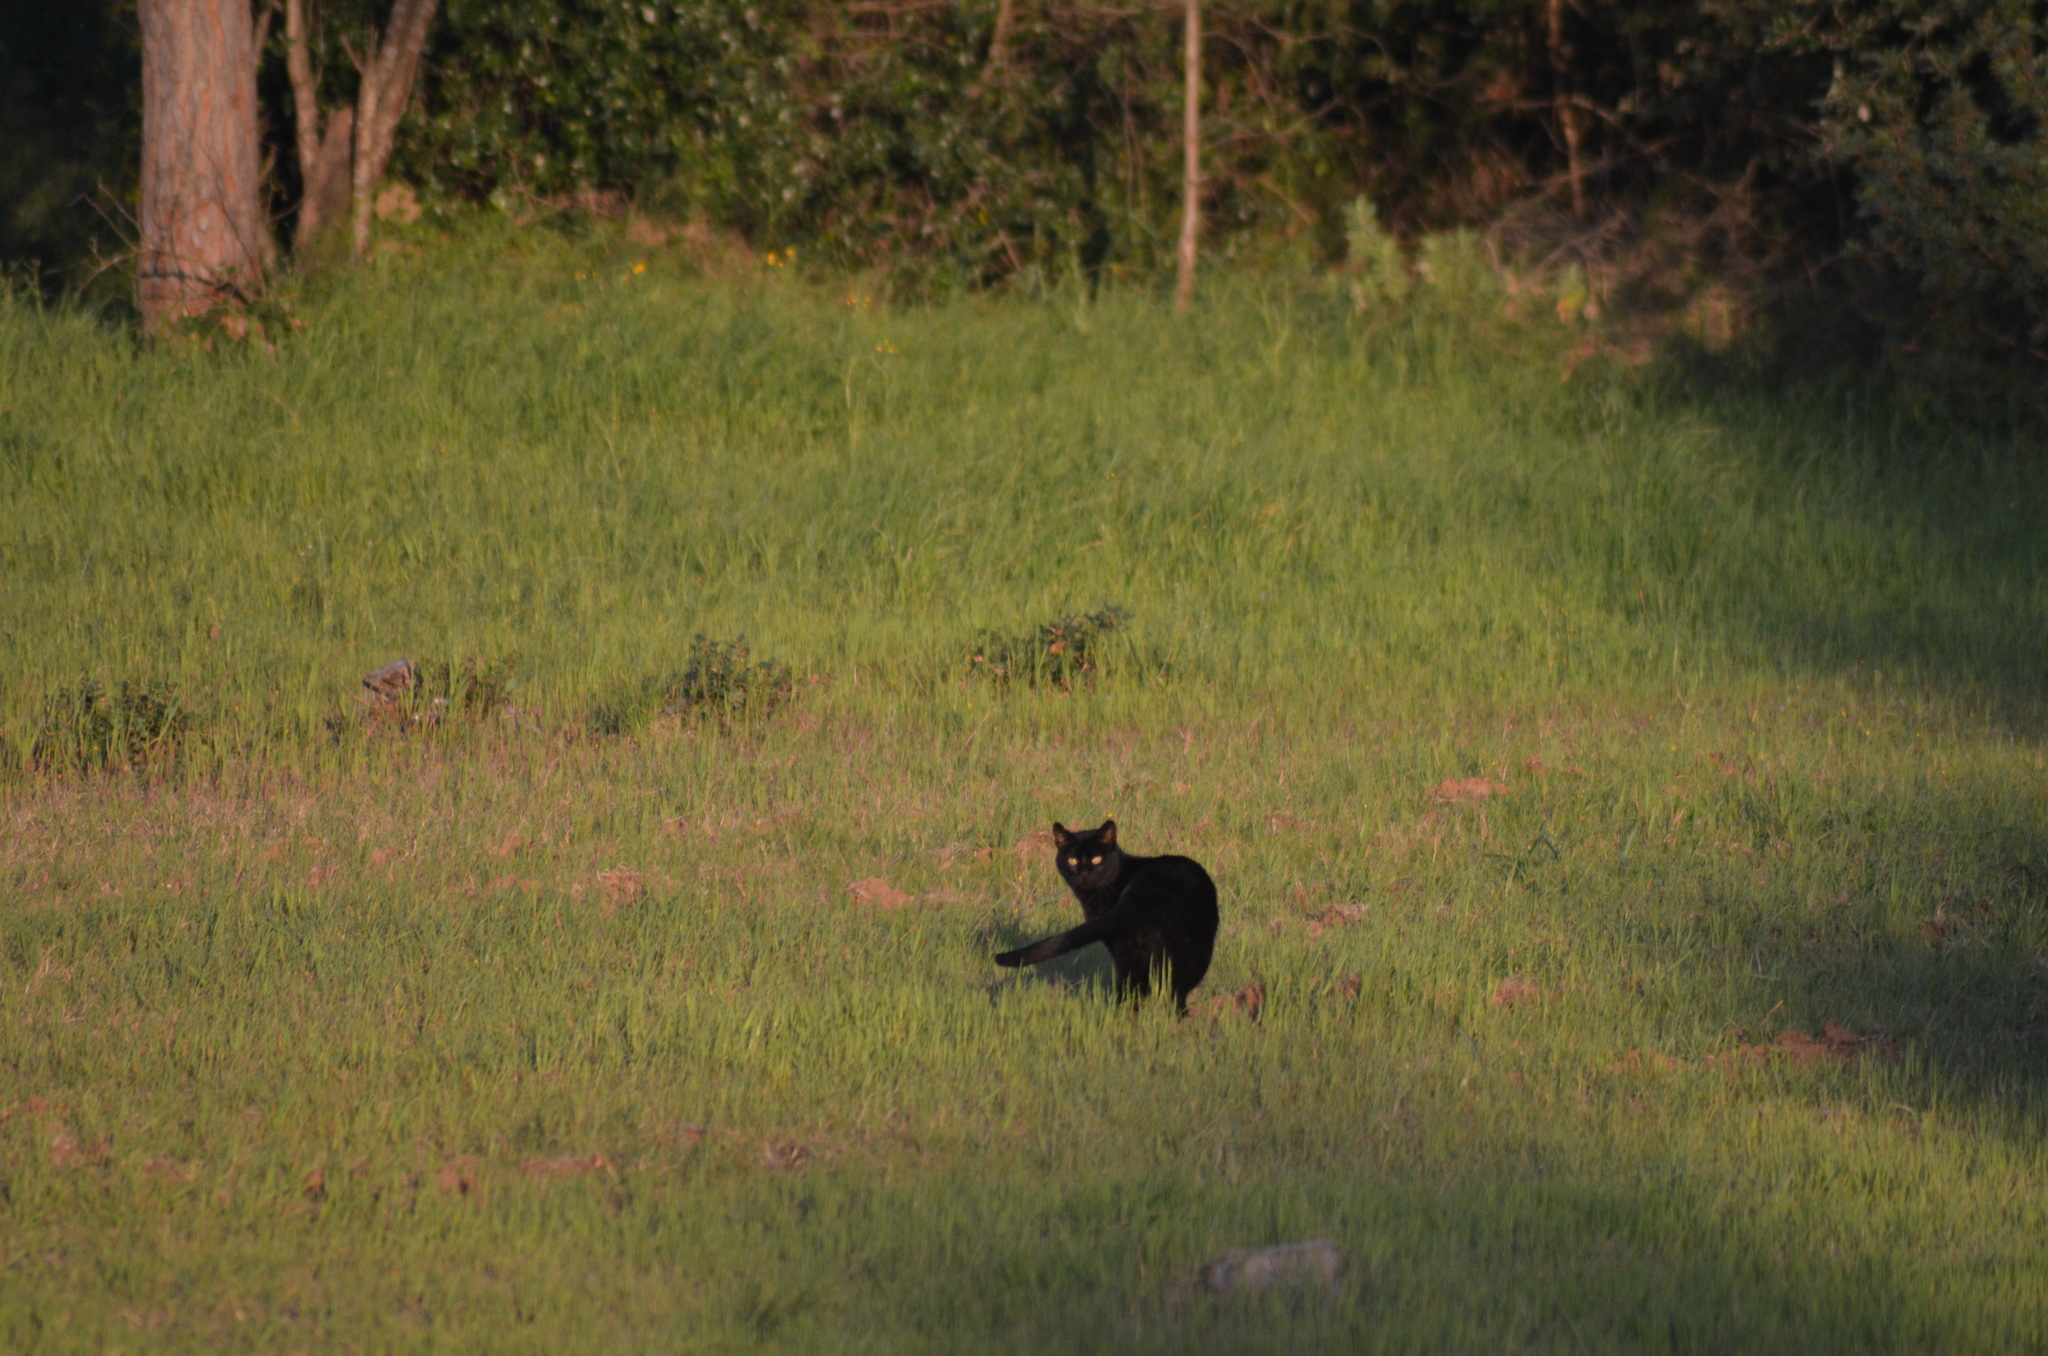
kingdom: Animalia
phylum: Chordata
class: Mammalia
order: Carnivora
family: Felidae
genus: Felis
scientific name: Felis catus
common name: Domestic cat
